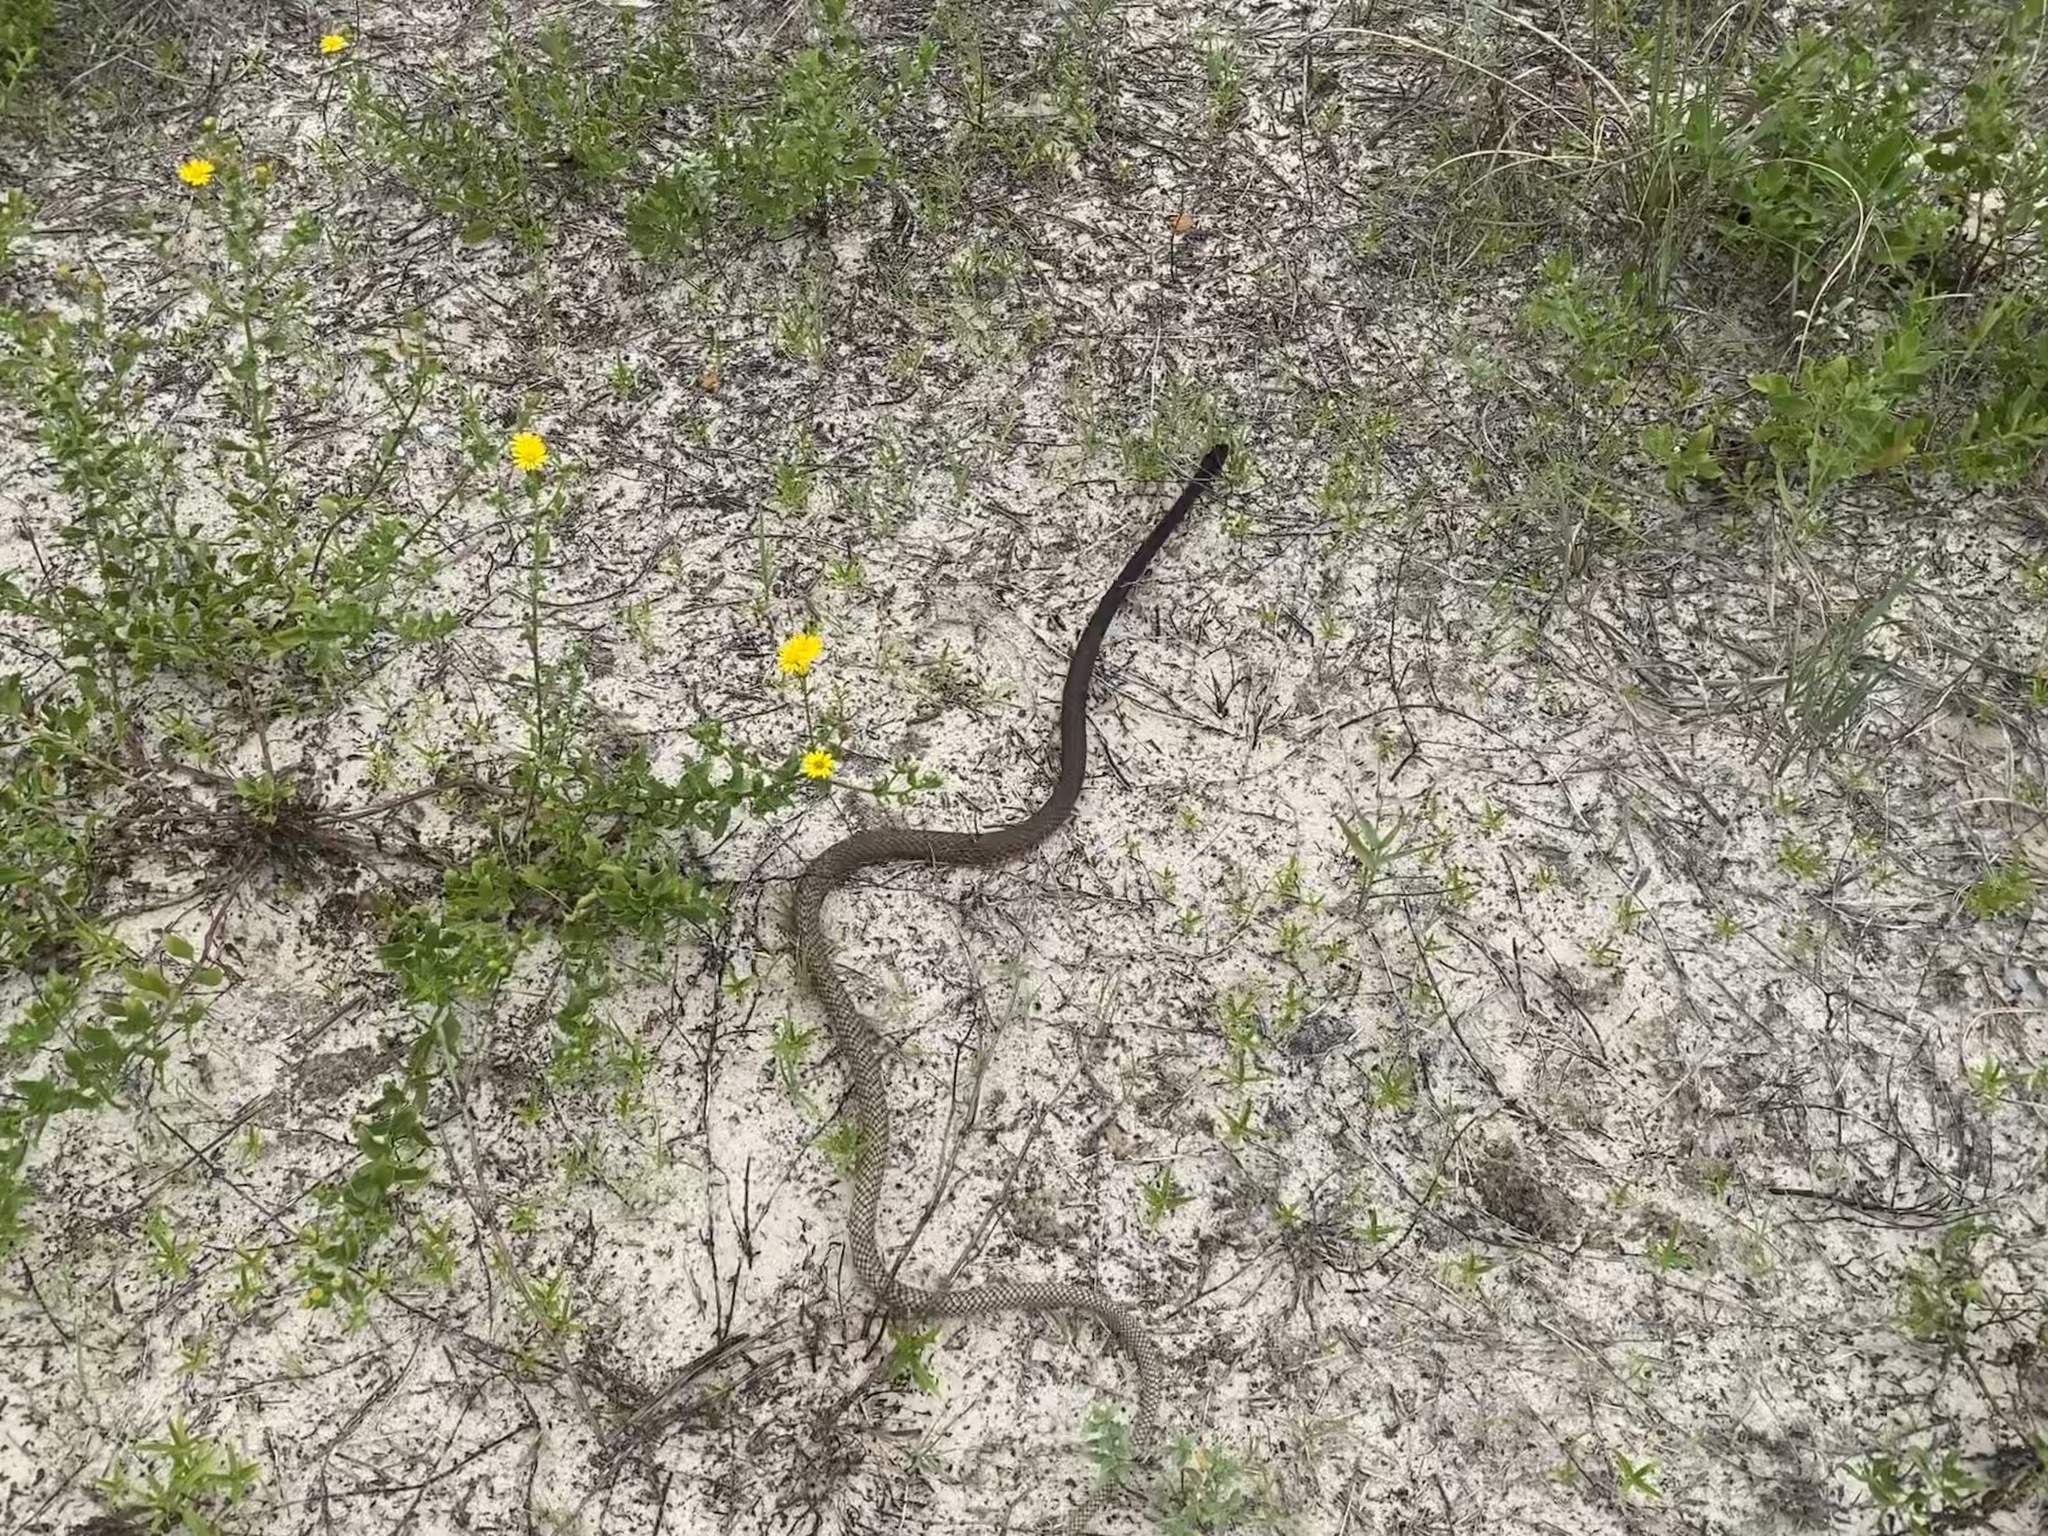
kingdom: Animalia
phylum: Chordata
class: Squamata
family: Colubridae
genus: Masticophis
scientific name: Masticophis flagellum
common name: Coachwhip
